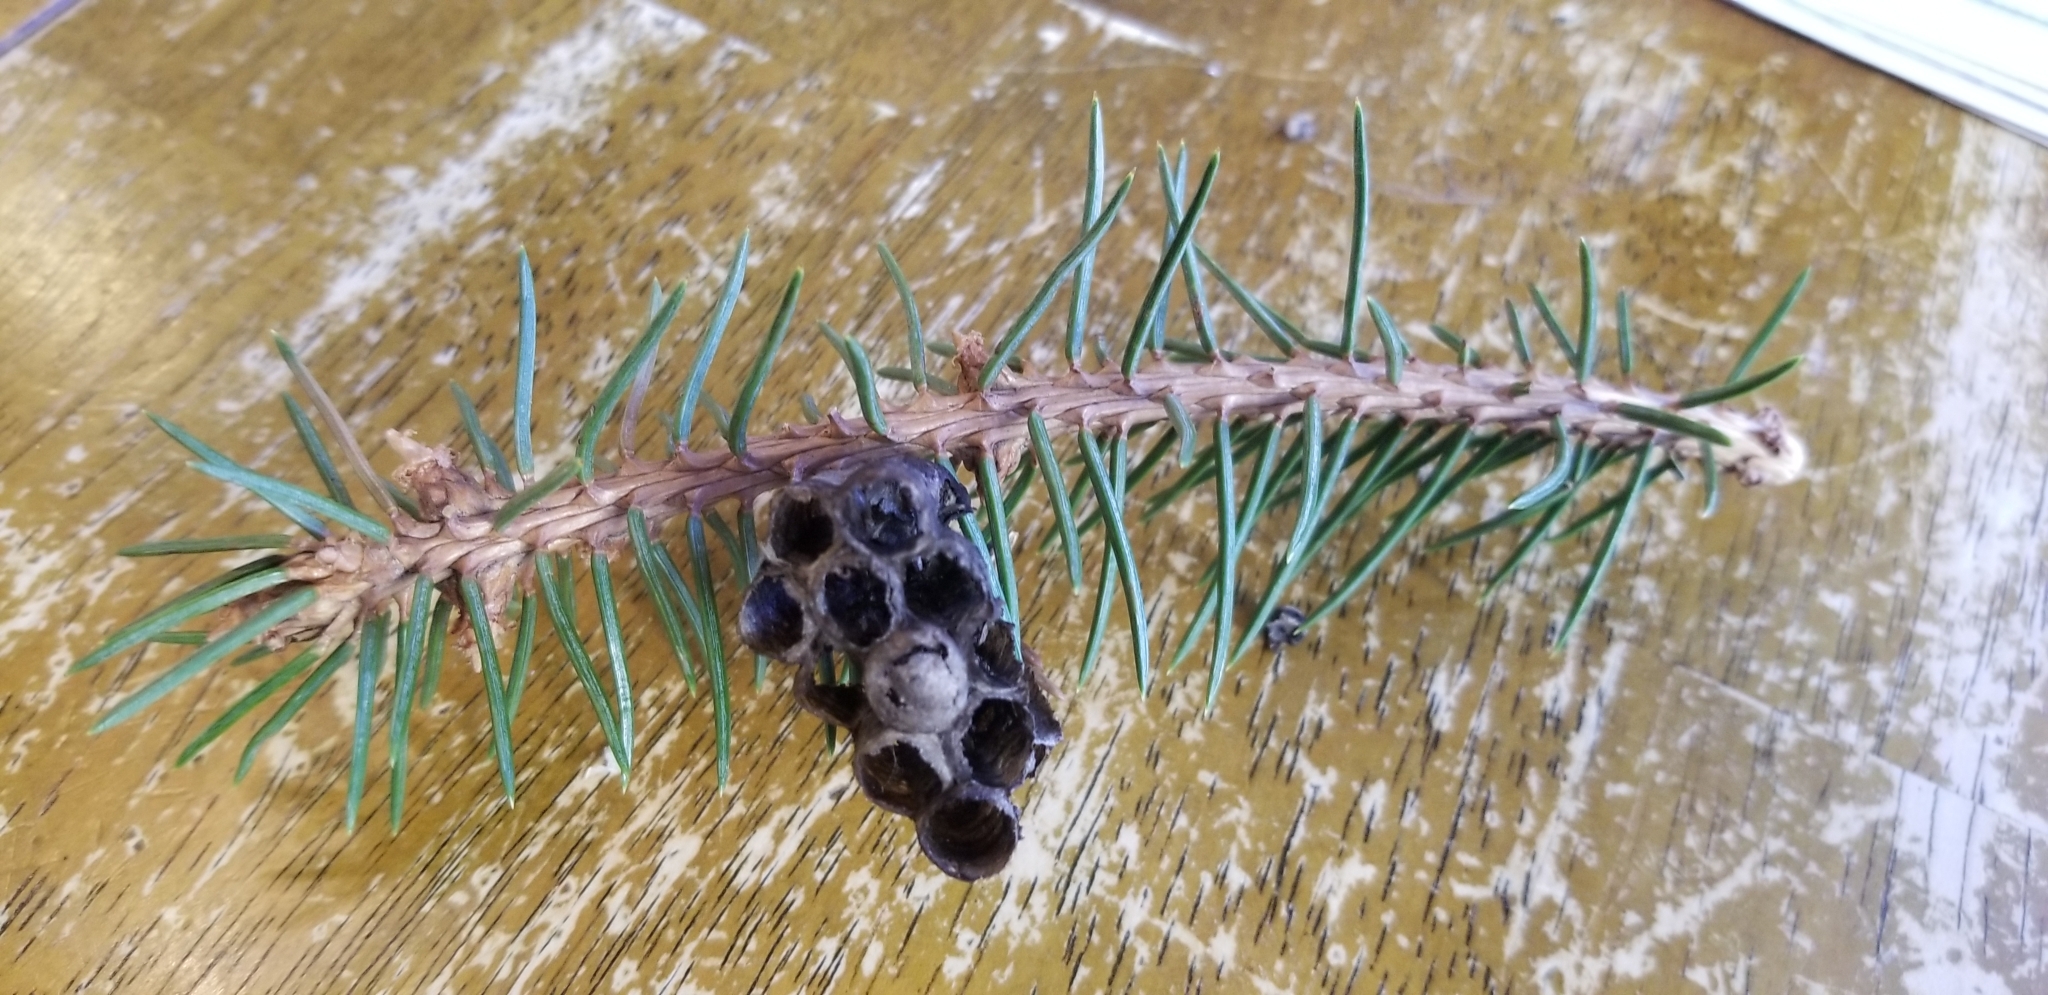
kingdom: Animalia
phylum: Arthropoda
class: Insecta
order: Hymenoptera
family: Eumenidae
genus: Polistes
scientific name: Polistes
